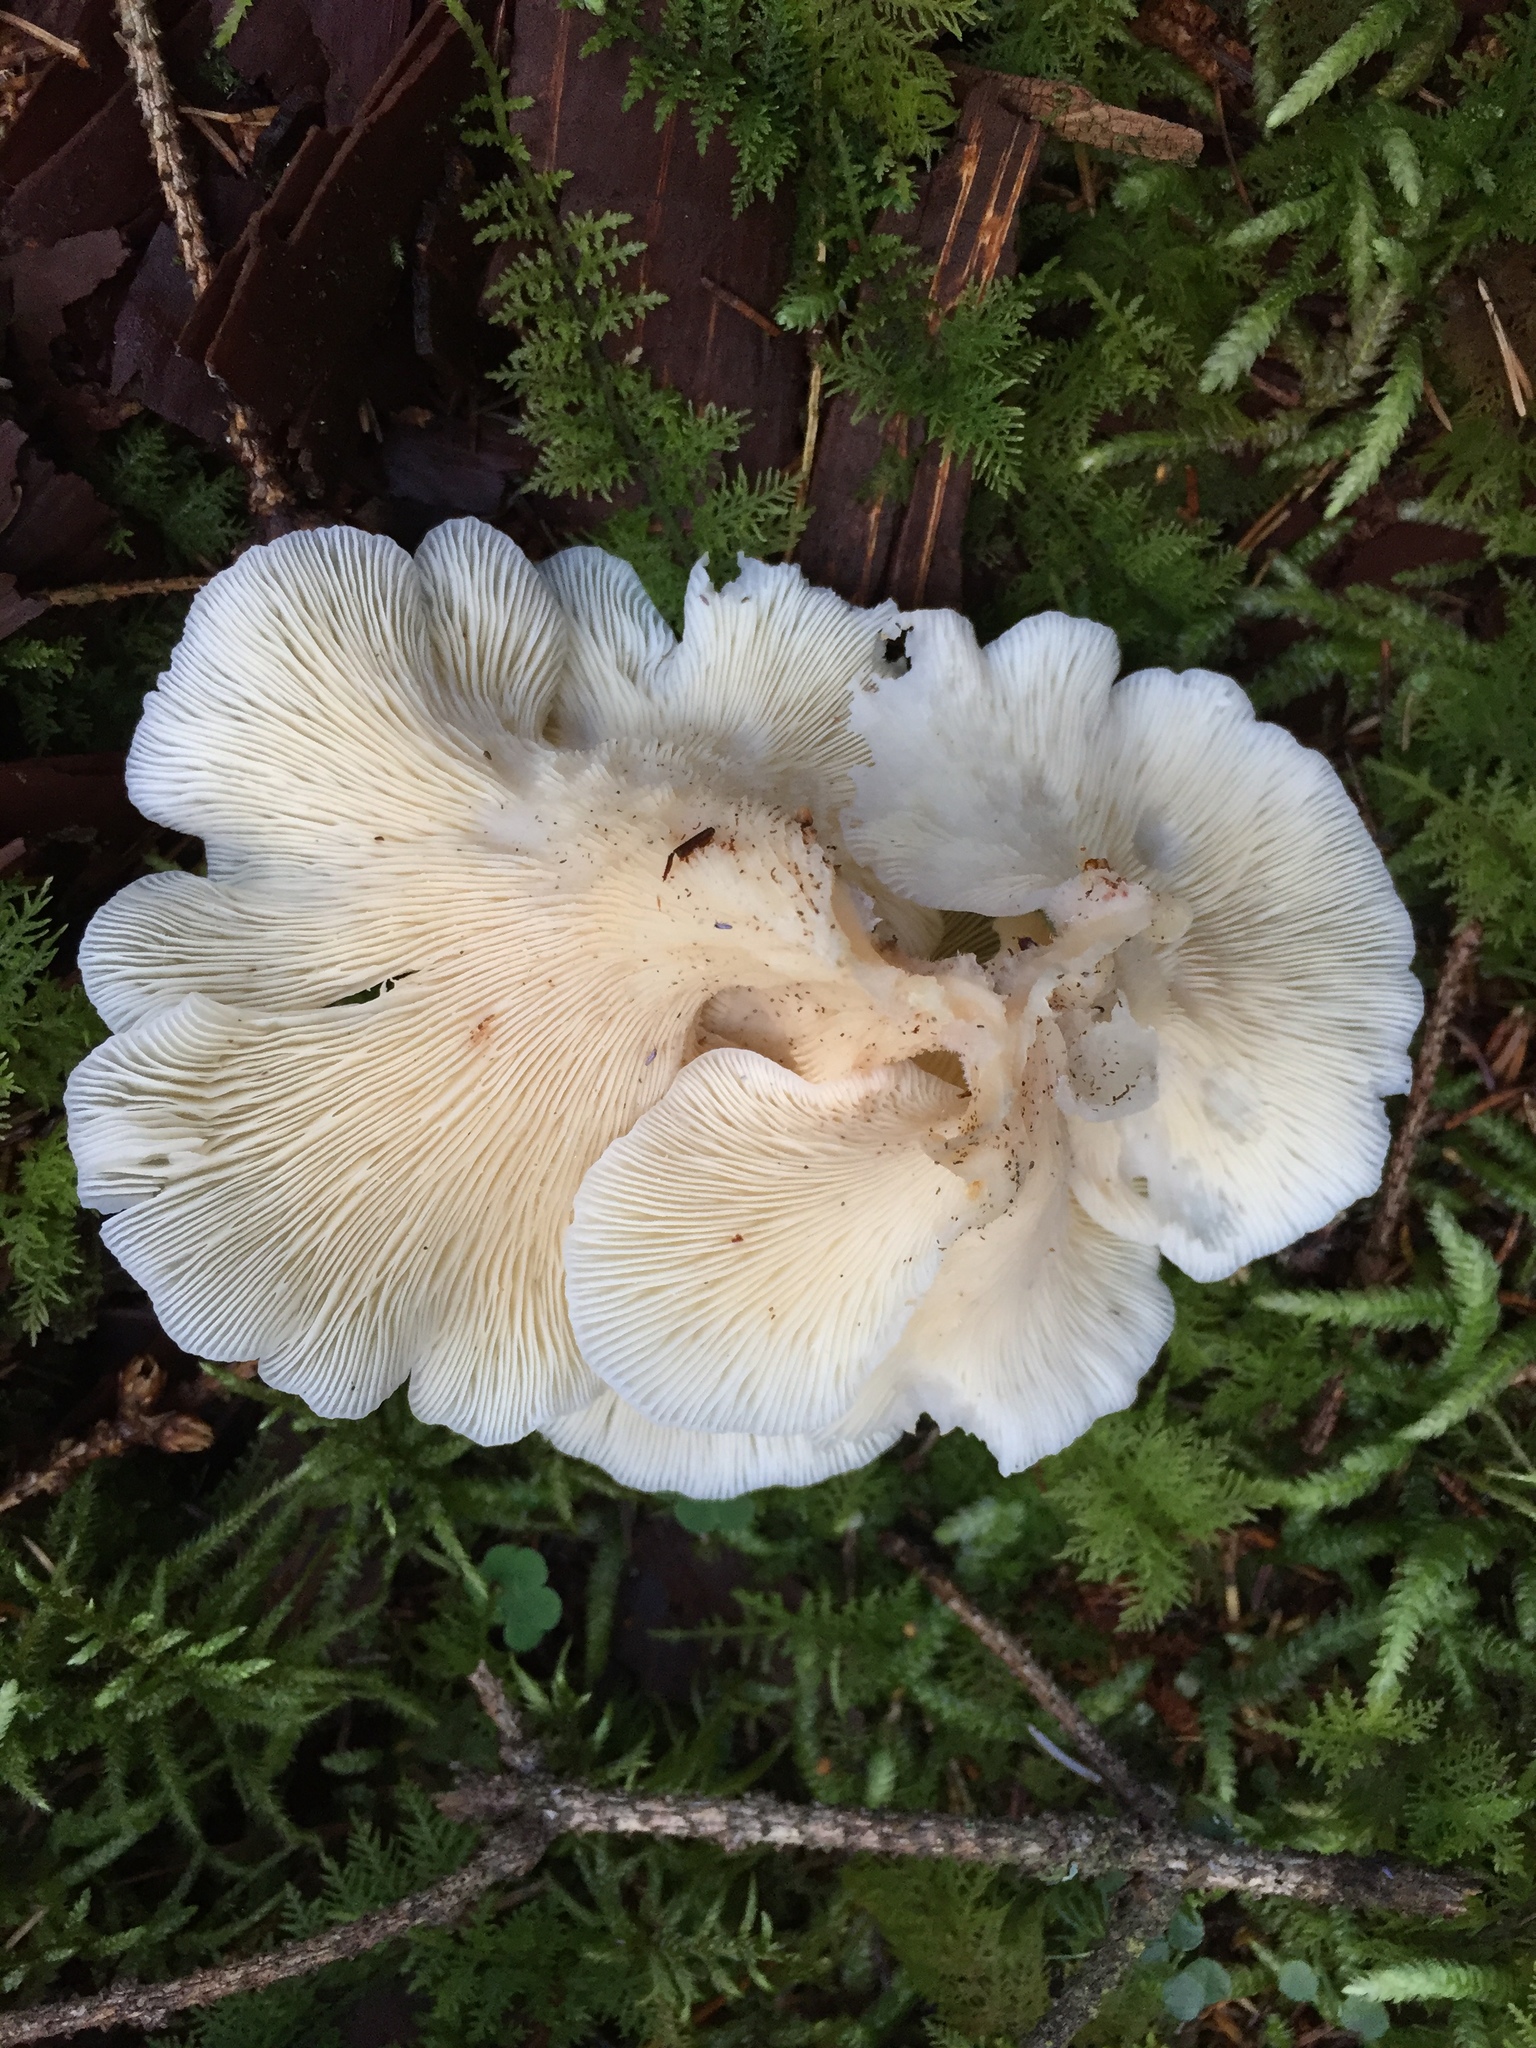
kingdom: Fungi
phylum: Basidiomycota
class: Agaricomycetes
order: Agaricales
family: Marasmiaceae
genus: Pleurocybella
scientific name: Pleurocybella porrigens
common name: Angel's wings
